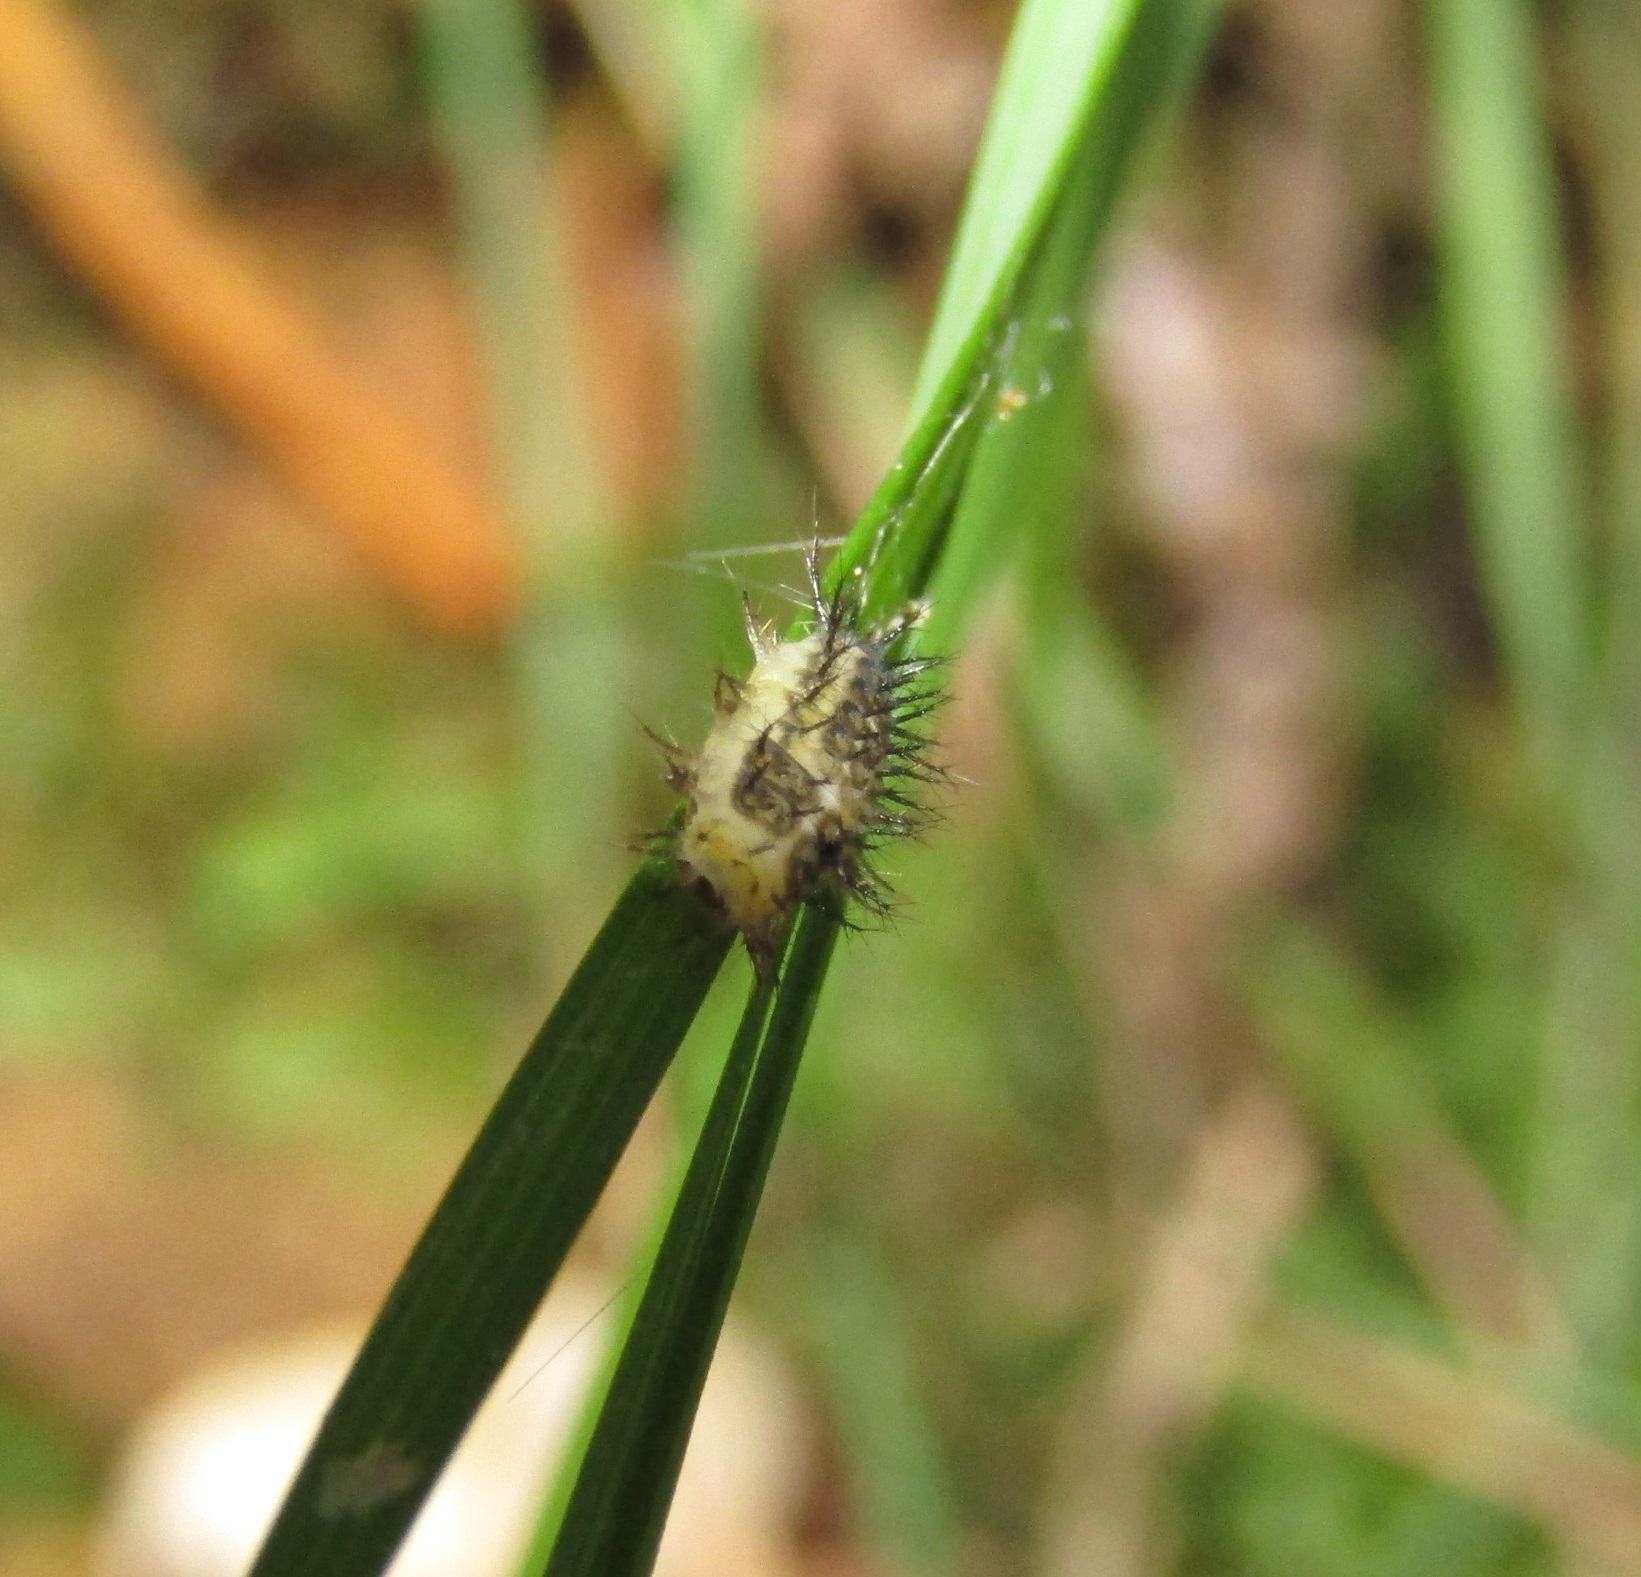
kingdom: Animalia
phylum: Arthropoda
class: Insecta
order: Coleoptera
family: Coccinellidae
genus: Halmus
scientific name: Halmus chalybeus
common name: Steel blue ladybird beetle
